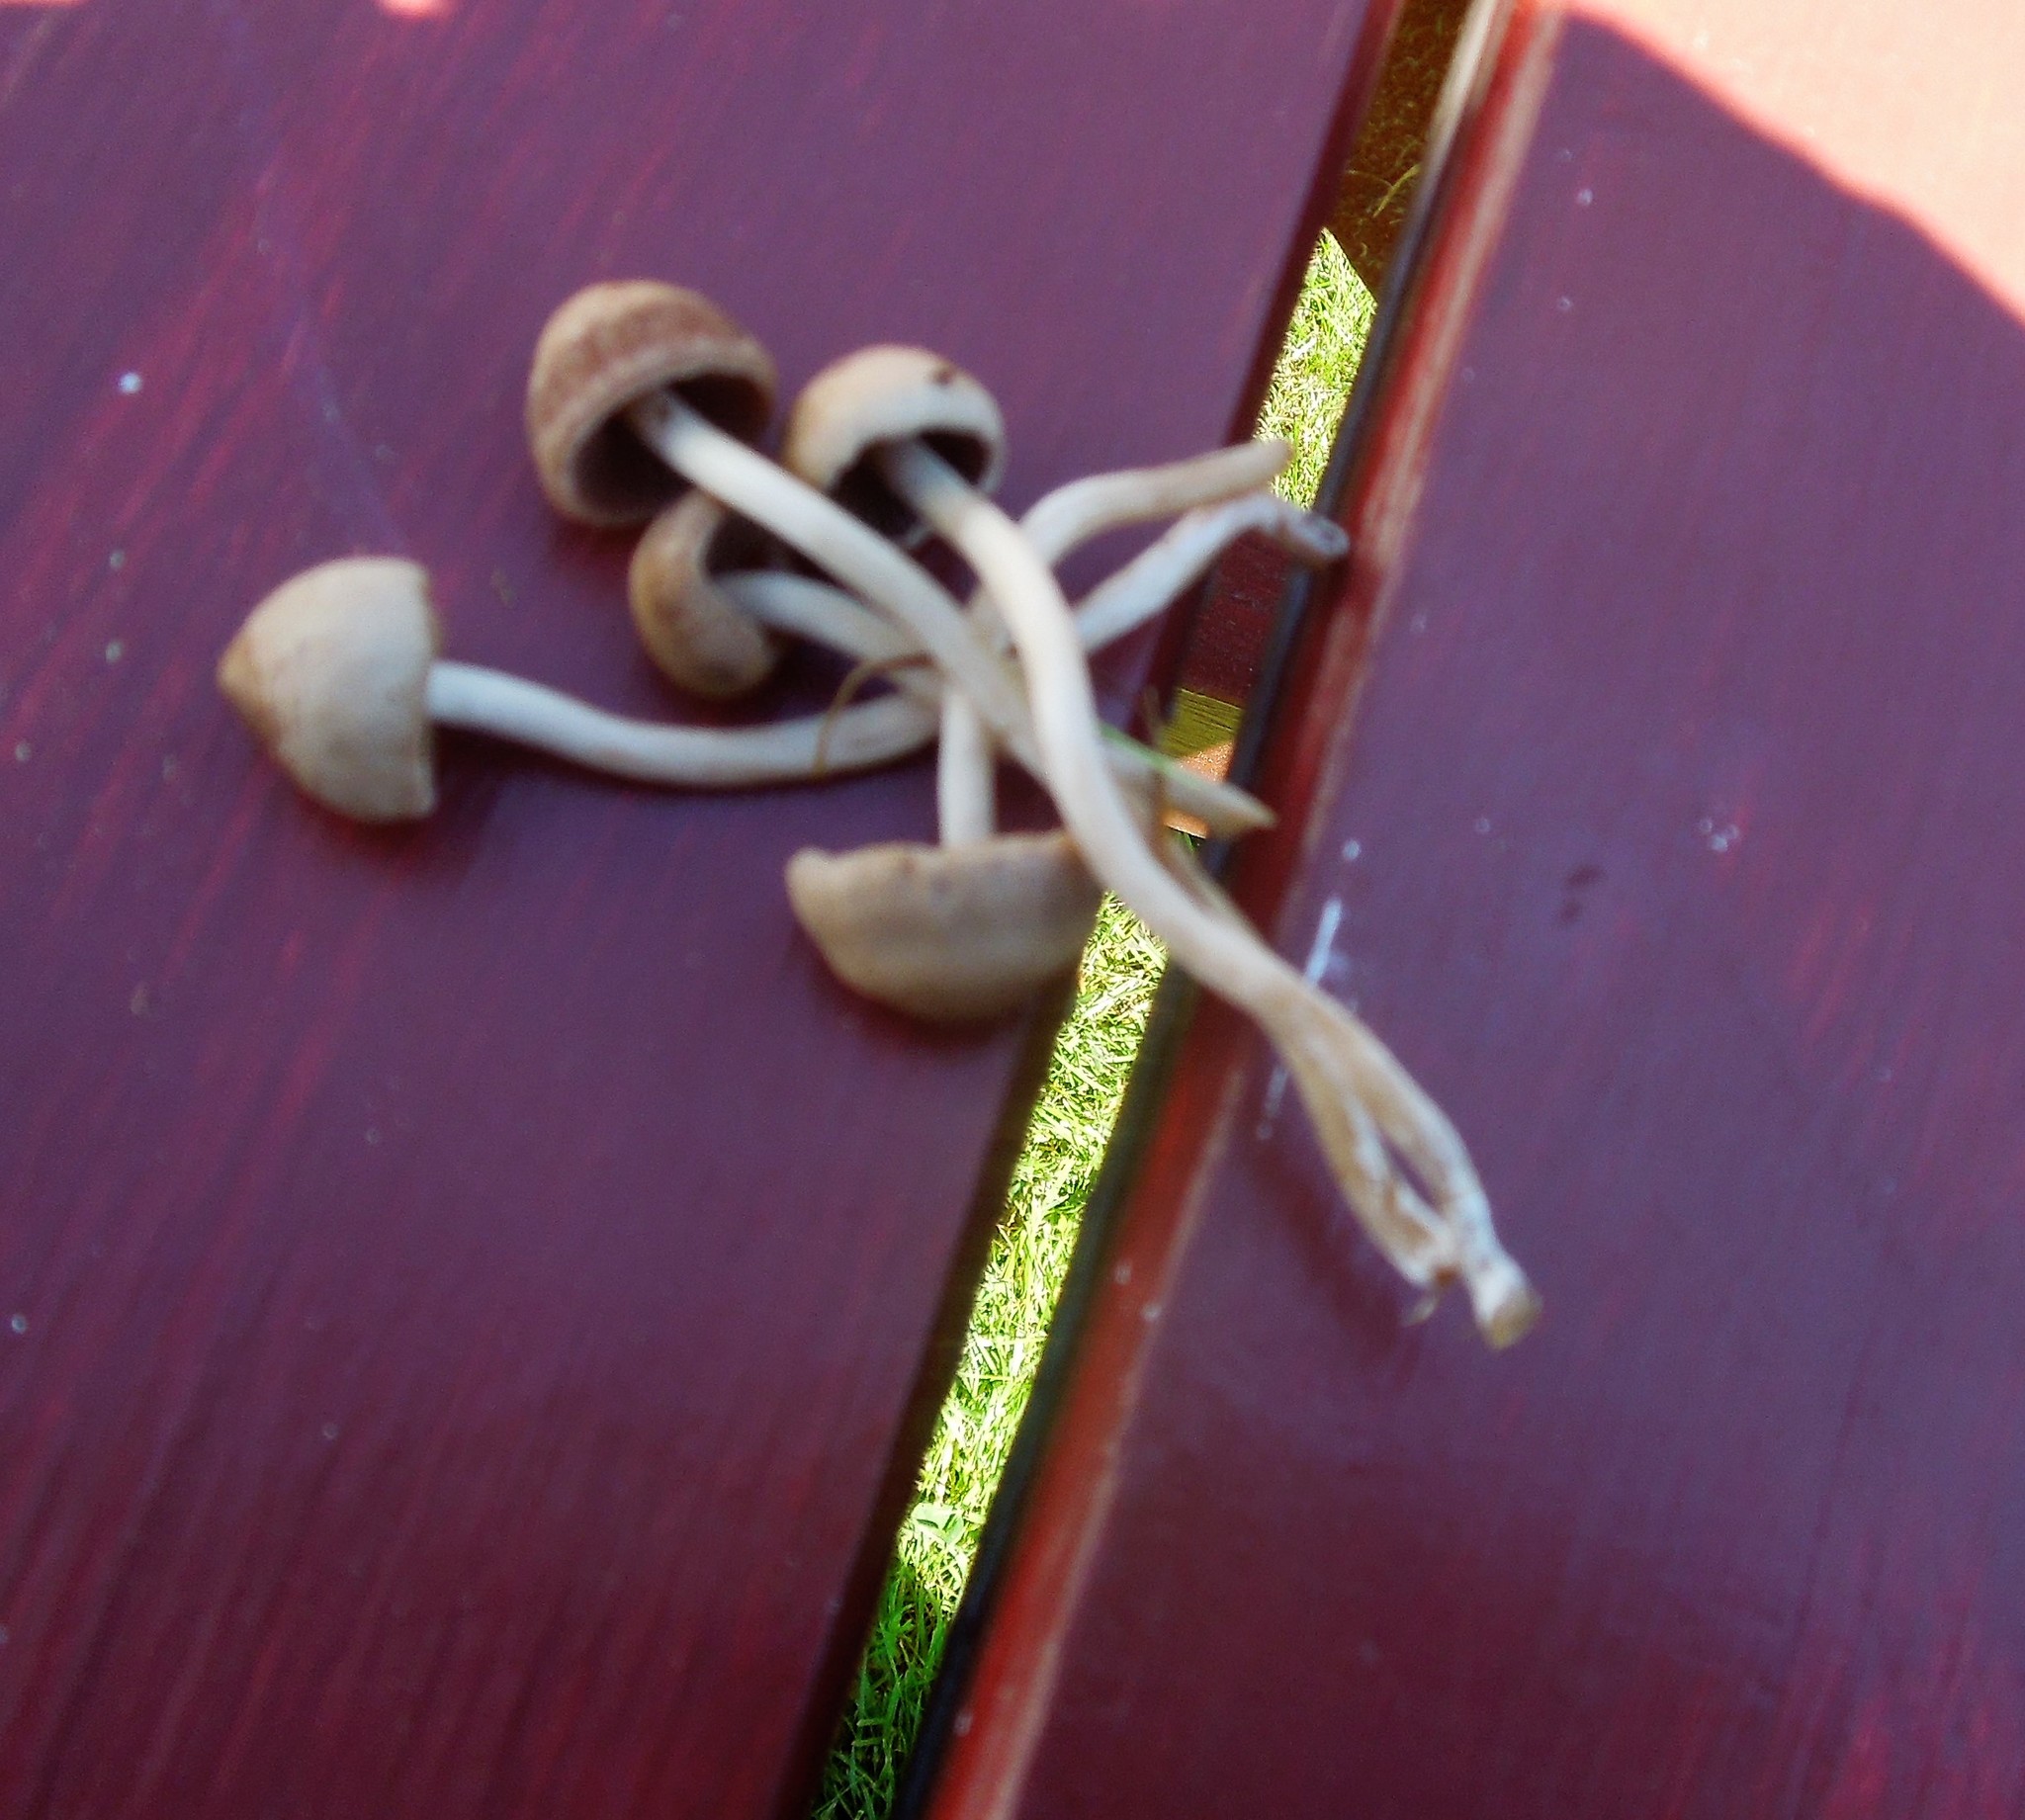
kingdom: Fungi
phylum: Basidiomycota
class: Agaricomycetes
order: Agaricales
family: Bolbitiaceae
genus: Panaeolus
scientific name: Panaeolus
